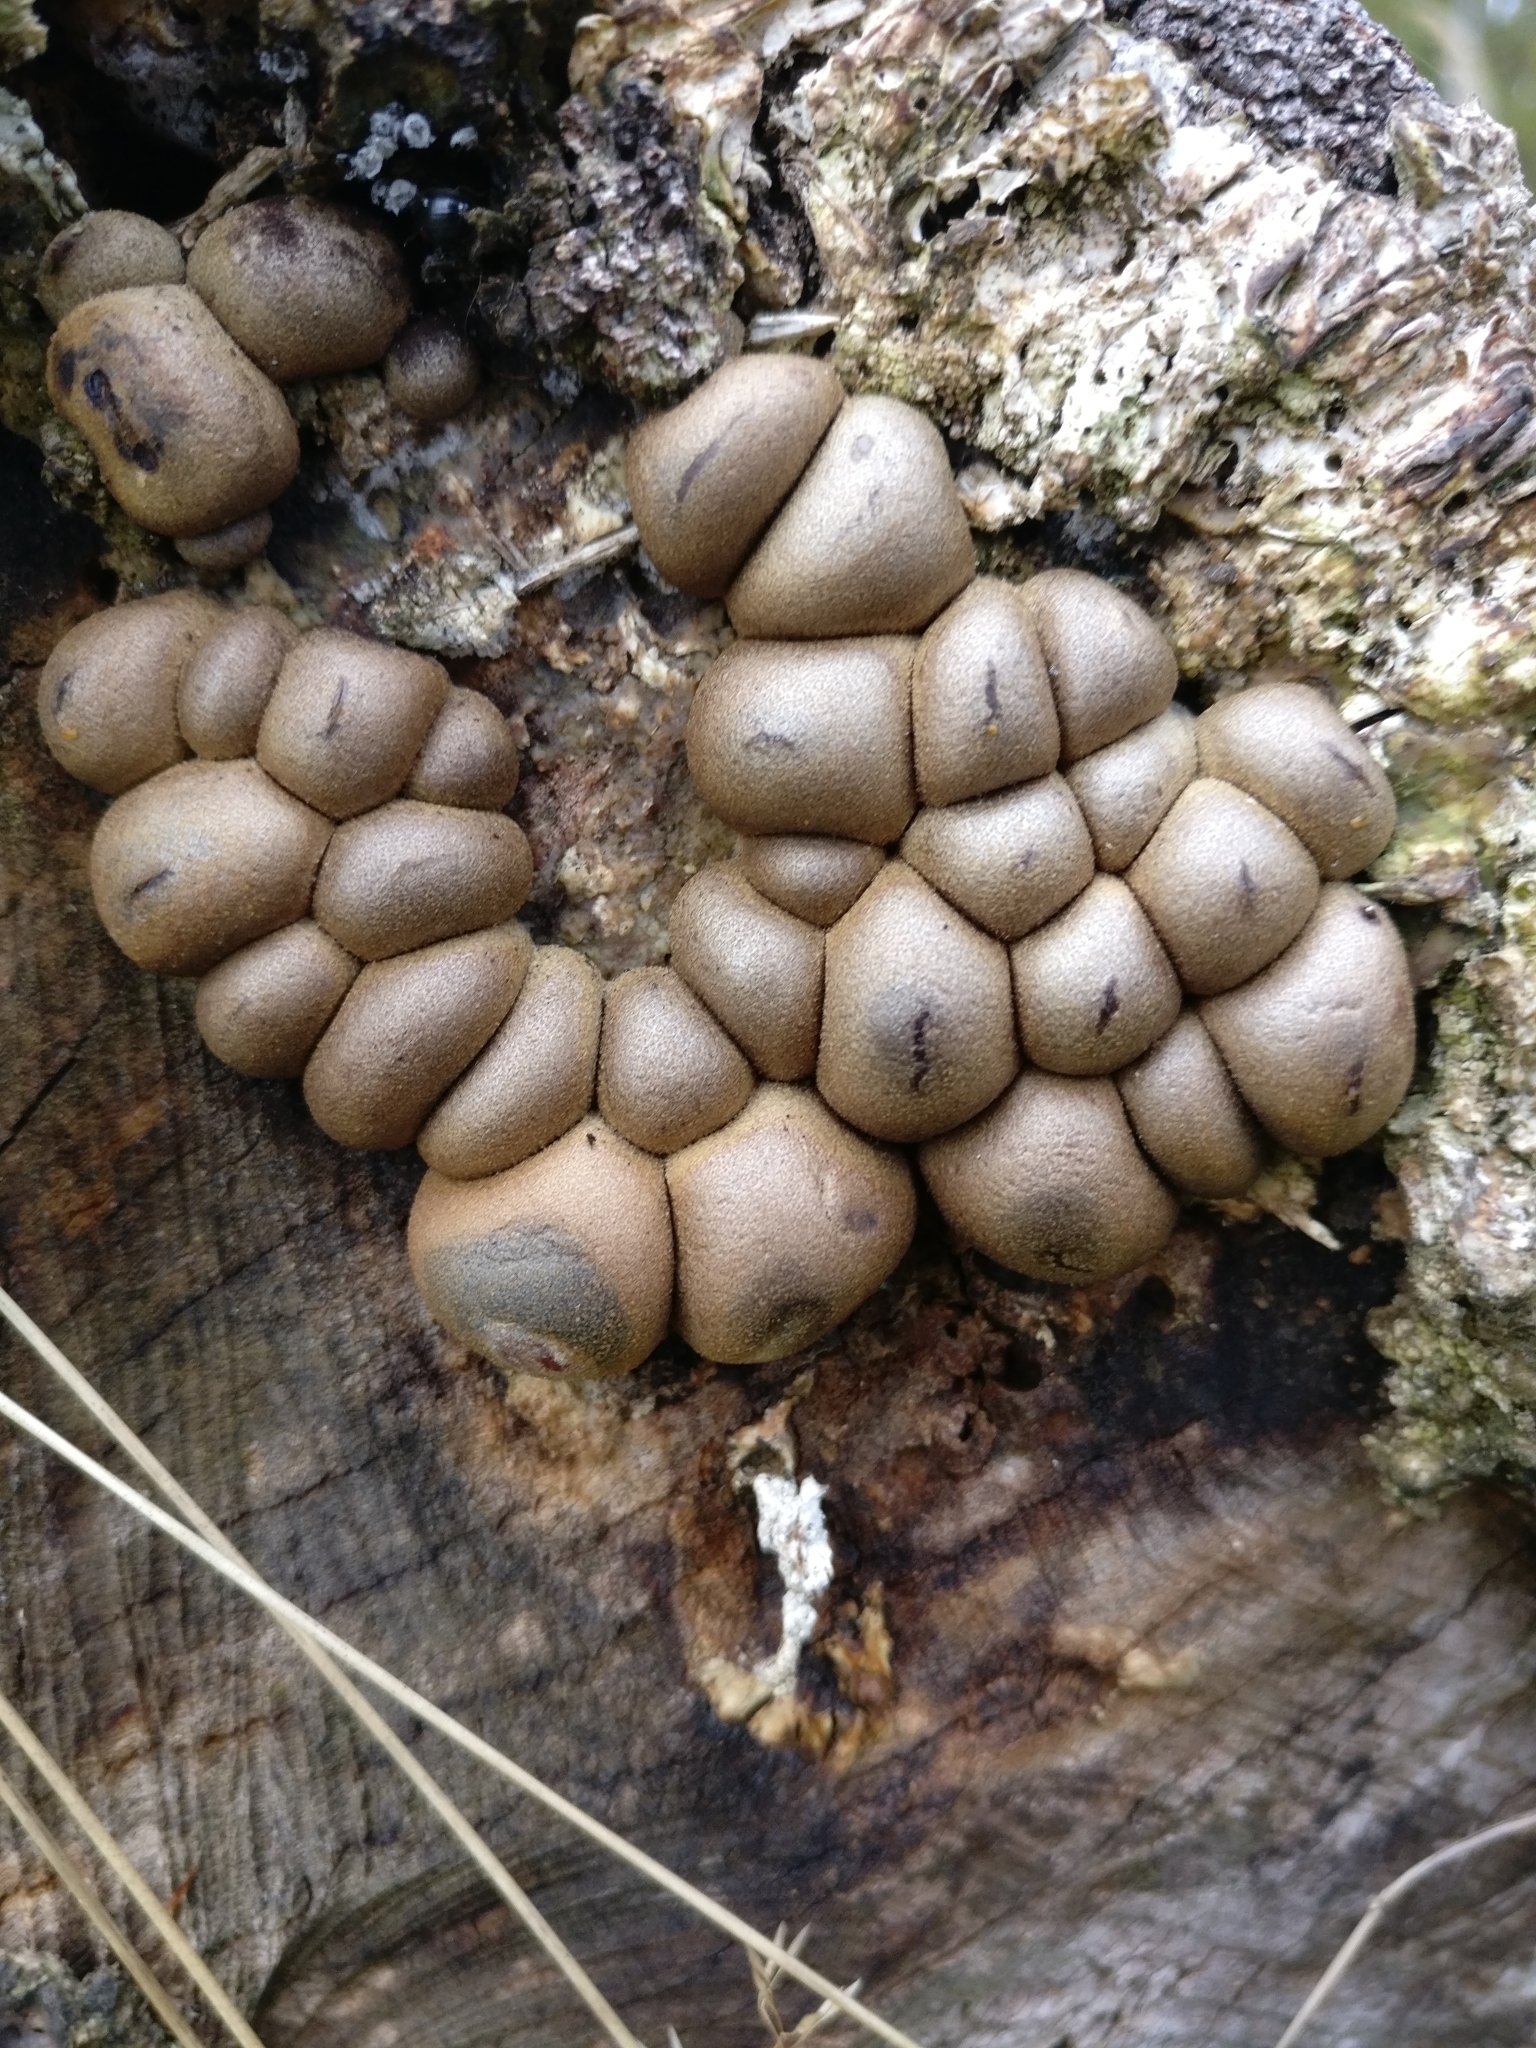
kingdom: Protozoa
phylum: Mycetozoa
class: Myxomycetes
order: Cribrariales
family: Tubiferaceae
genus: Lycogala
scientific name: Lycogala epidendrum
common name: Wolf's milk
